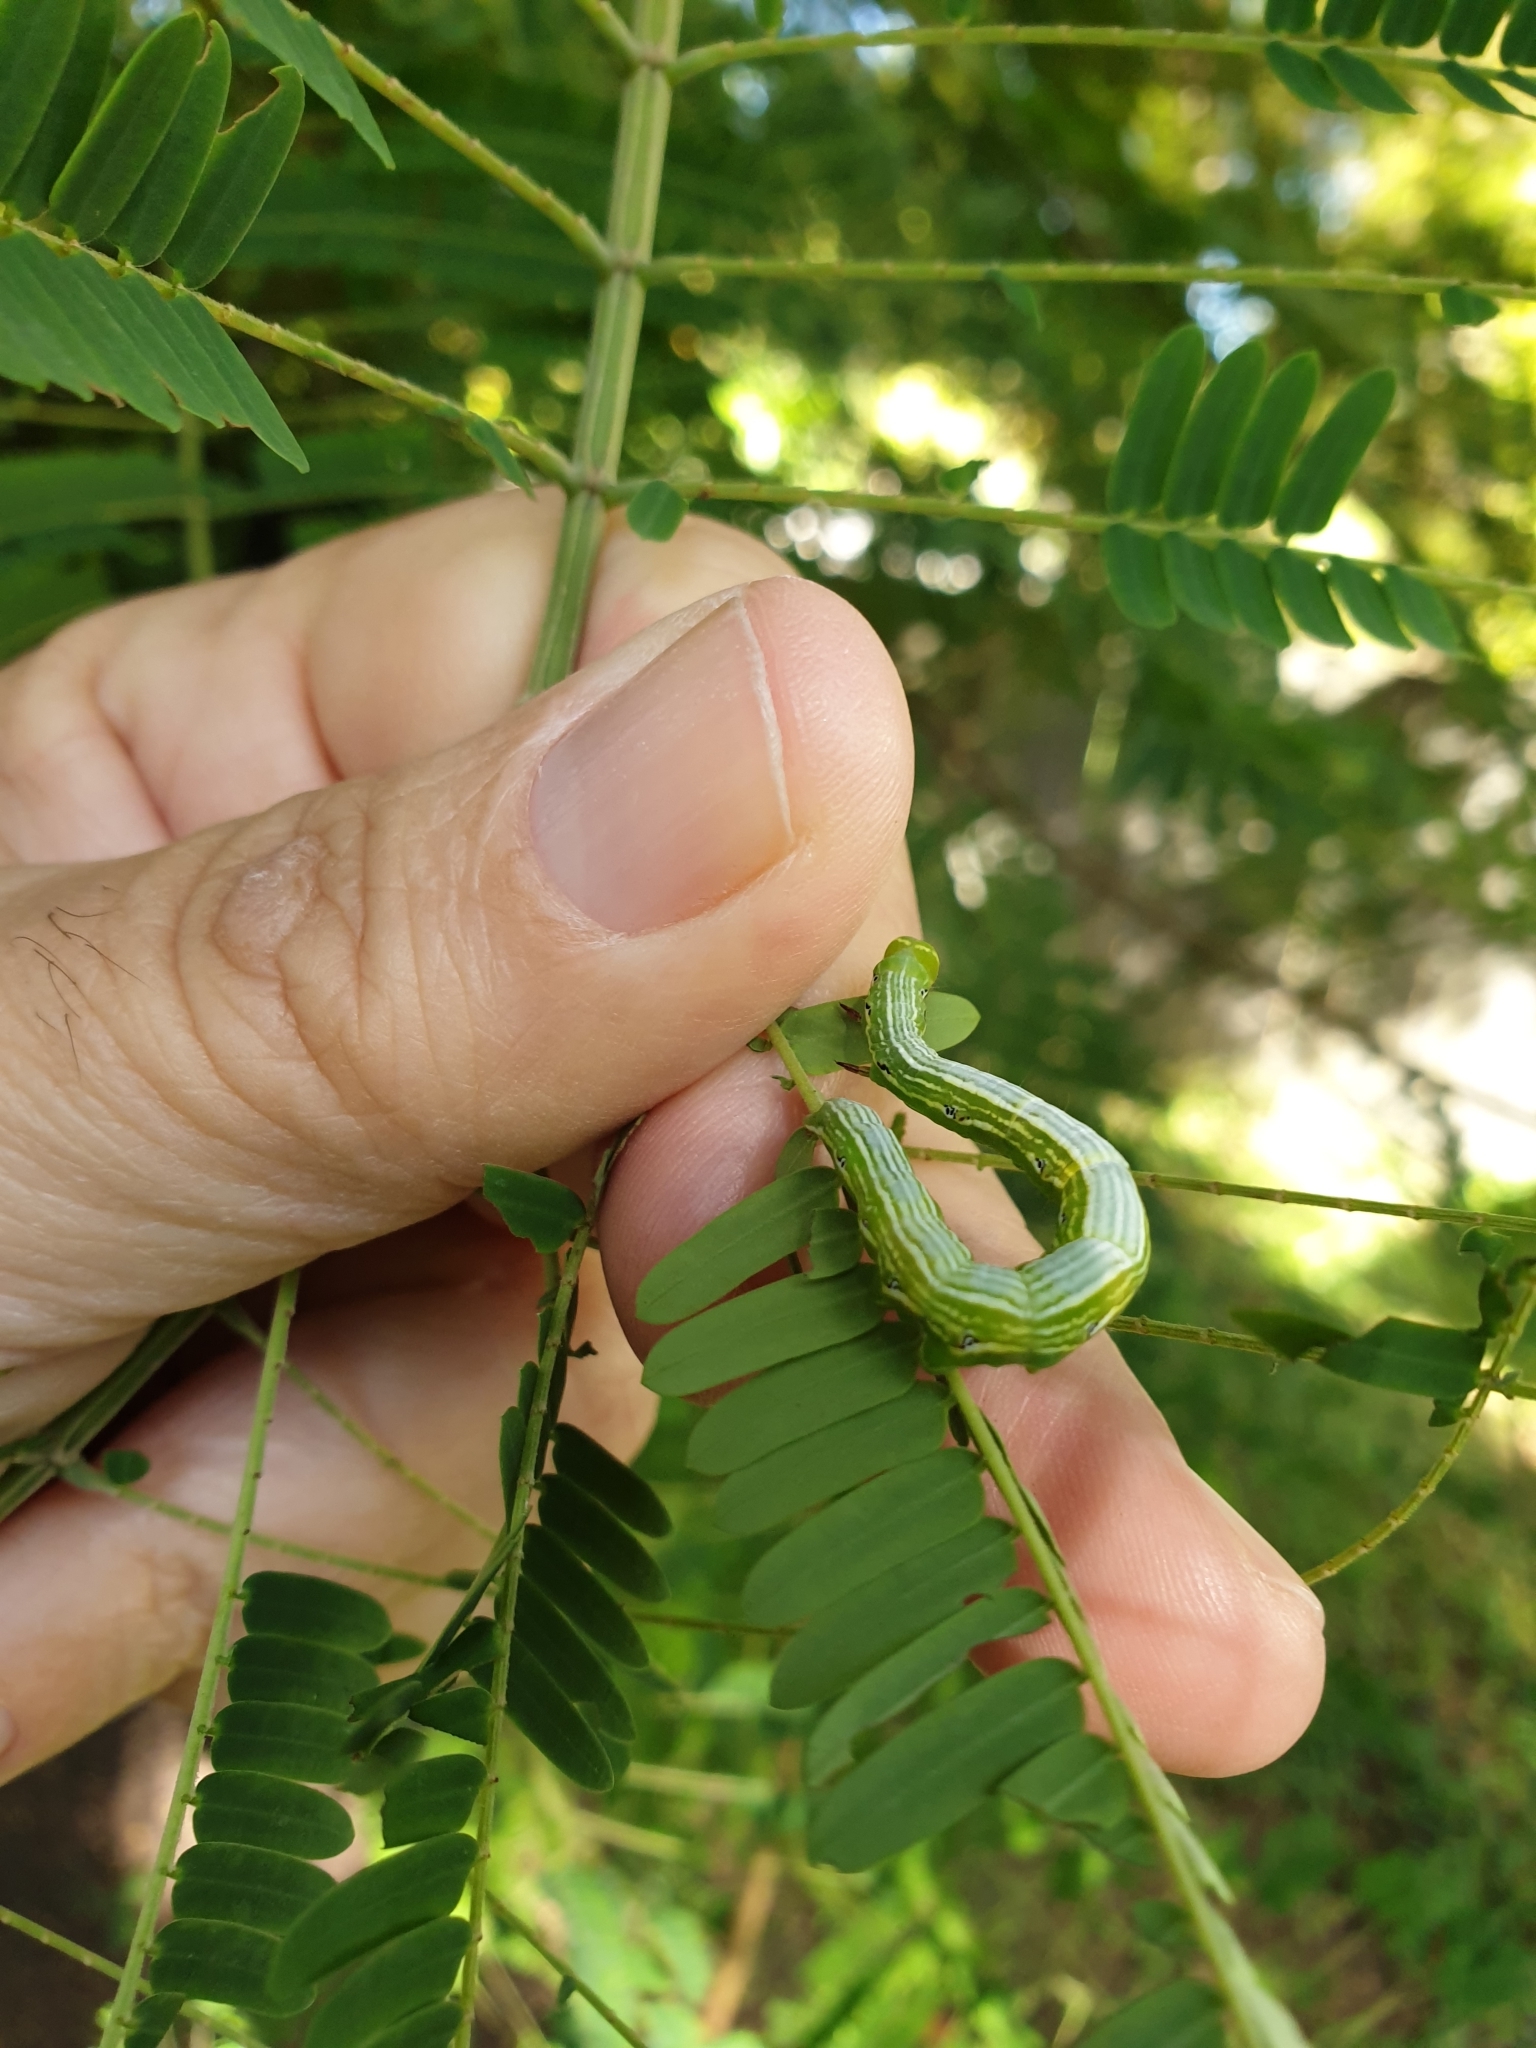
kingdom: Animalia
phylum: Arthropoda
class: Insecta
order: Lepidoptera
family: Erebidae
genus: Pericyma
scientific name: Pericyma cruegeri
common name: Poinciana looper
